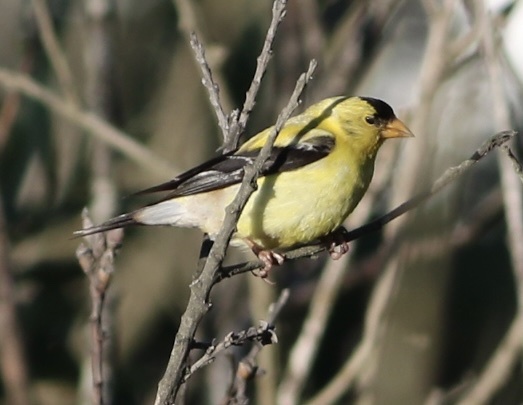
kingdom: Animalia
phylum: Chordata
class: Aves
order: Passeriformes
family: Fringillidae
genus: Spinus
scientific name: Spinus tristis
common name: American goldfinch
